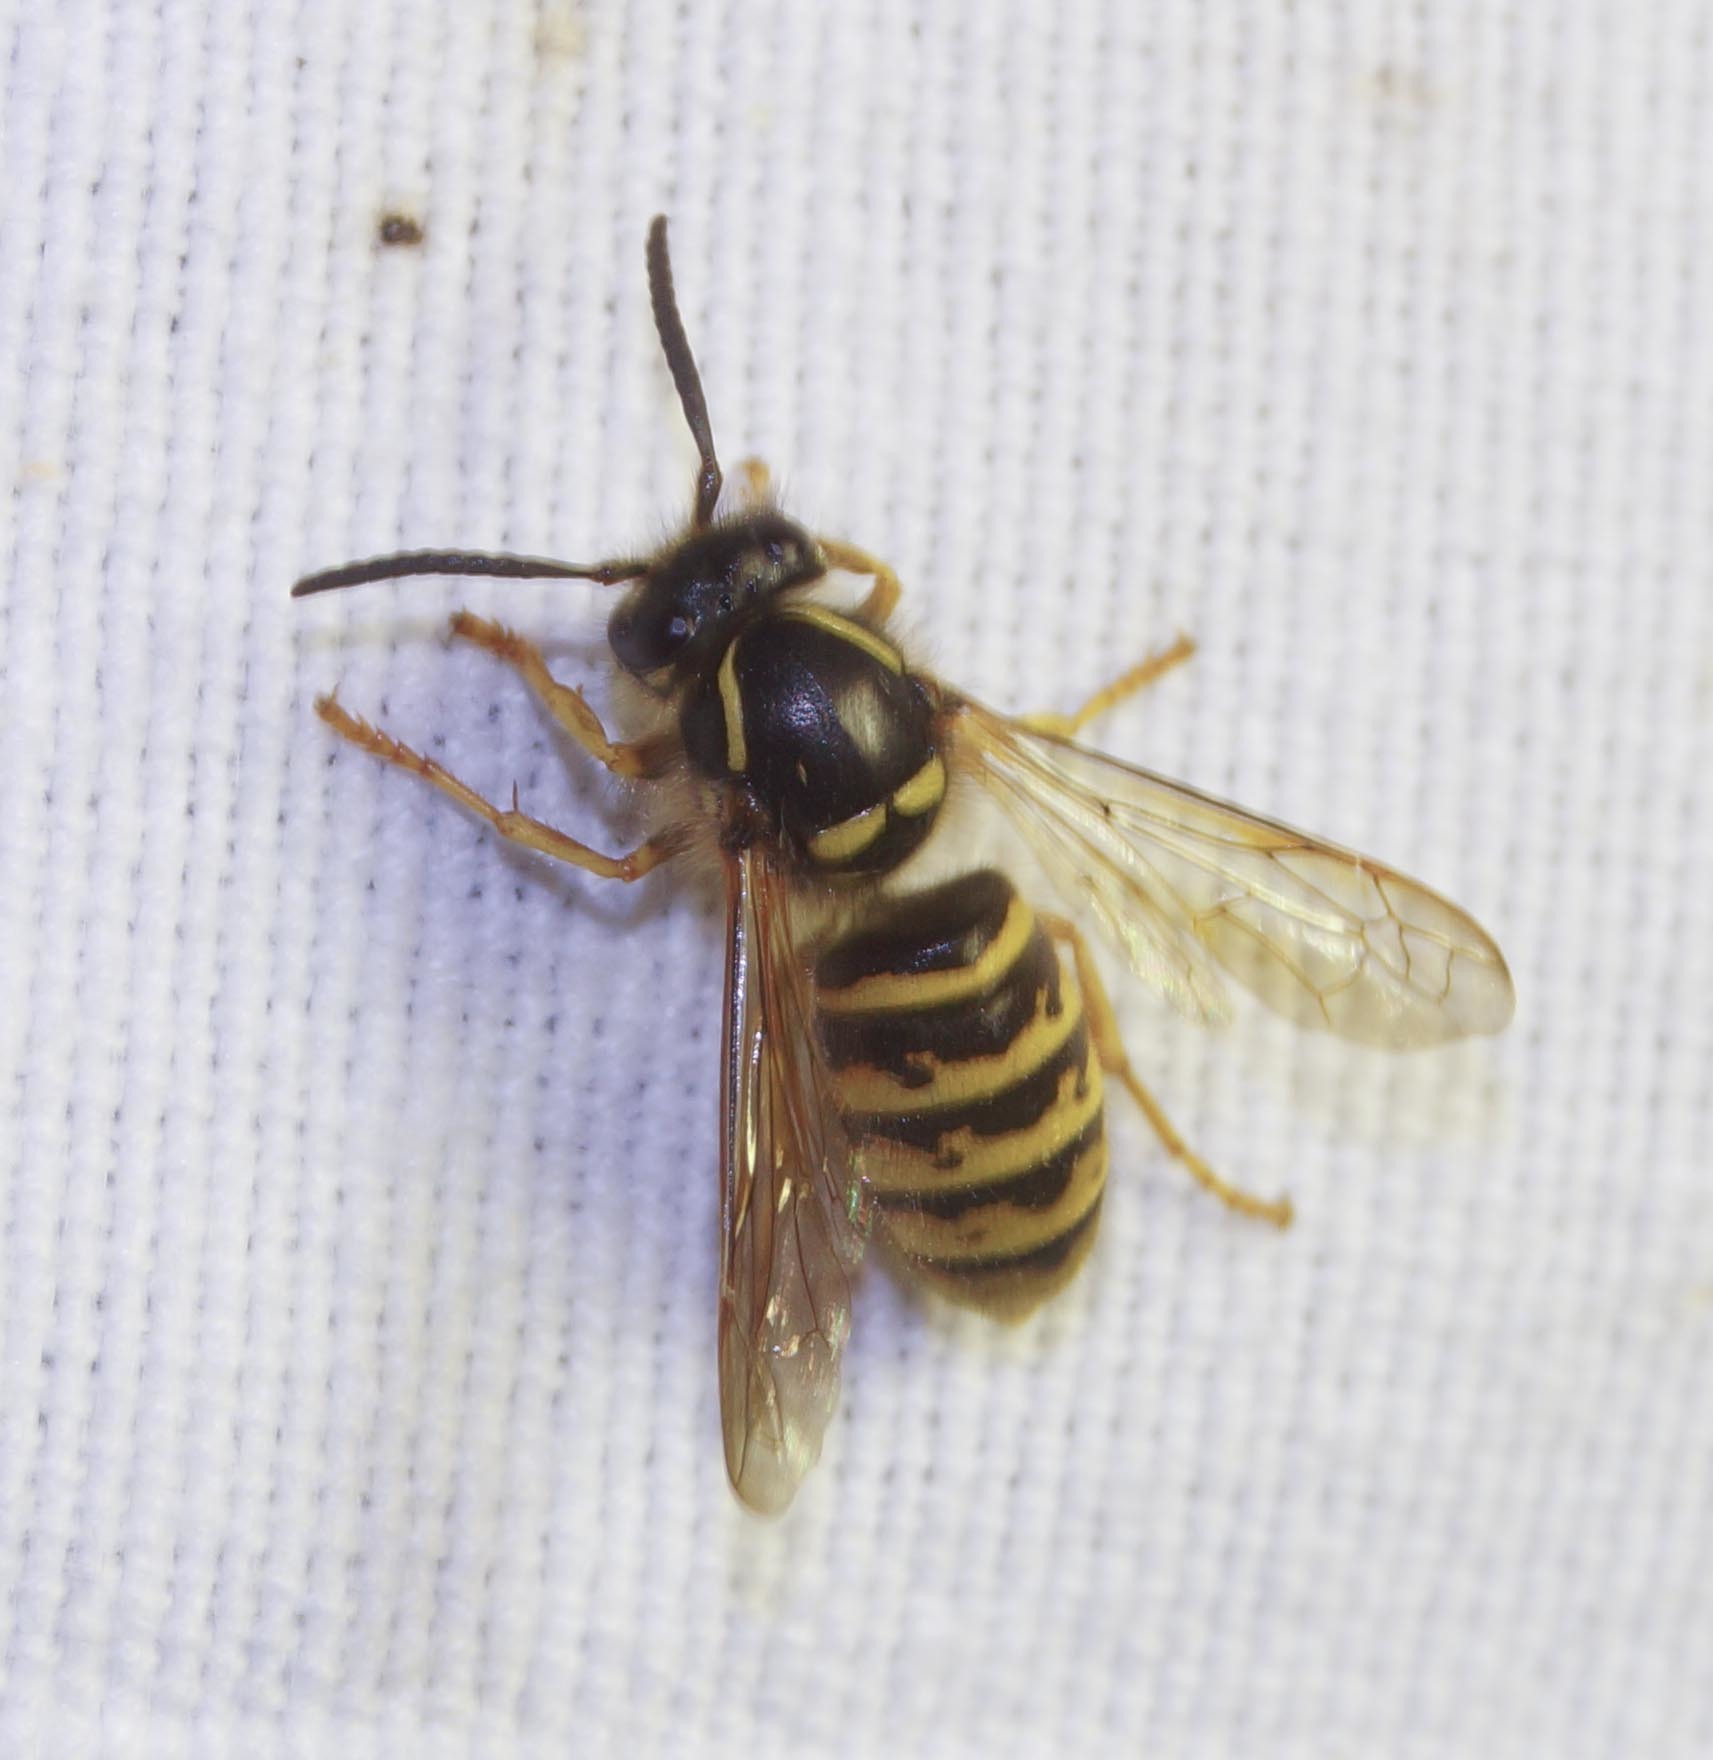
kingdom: Animalia
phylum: Arthropoda
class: Insecta
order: Hymenoptera
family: Vespidae
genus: Dolichovespula
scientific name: Dolichovespula saxonica
